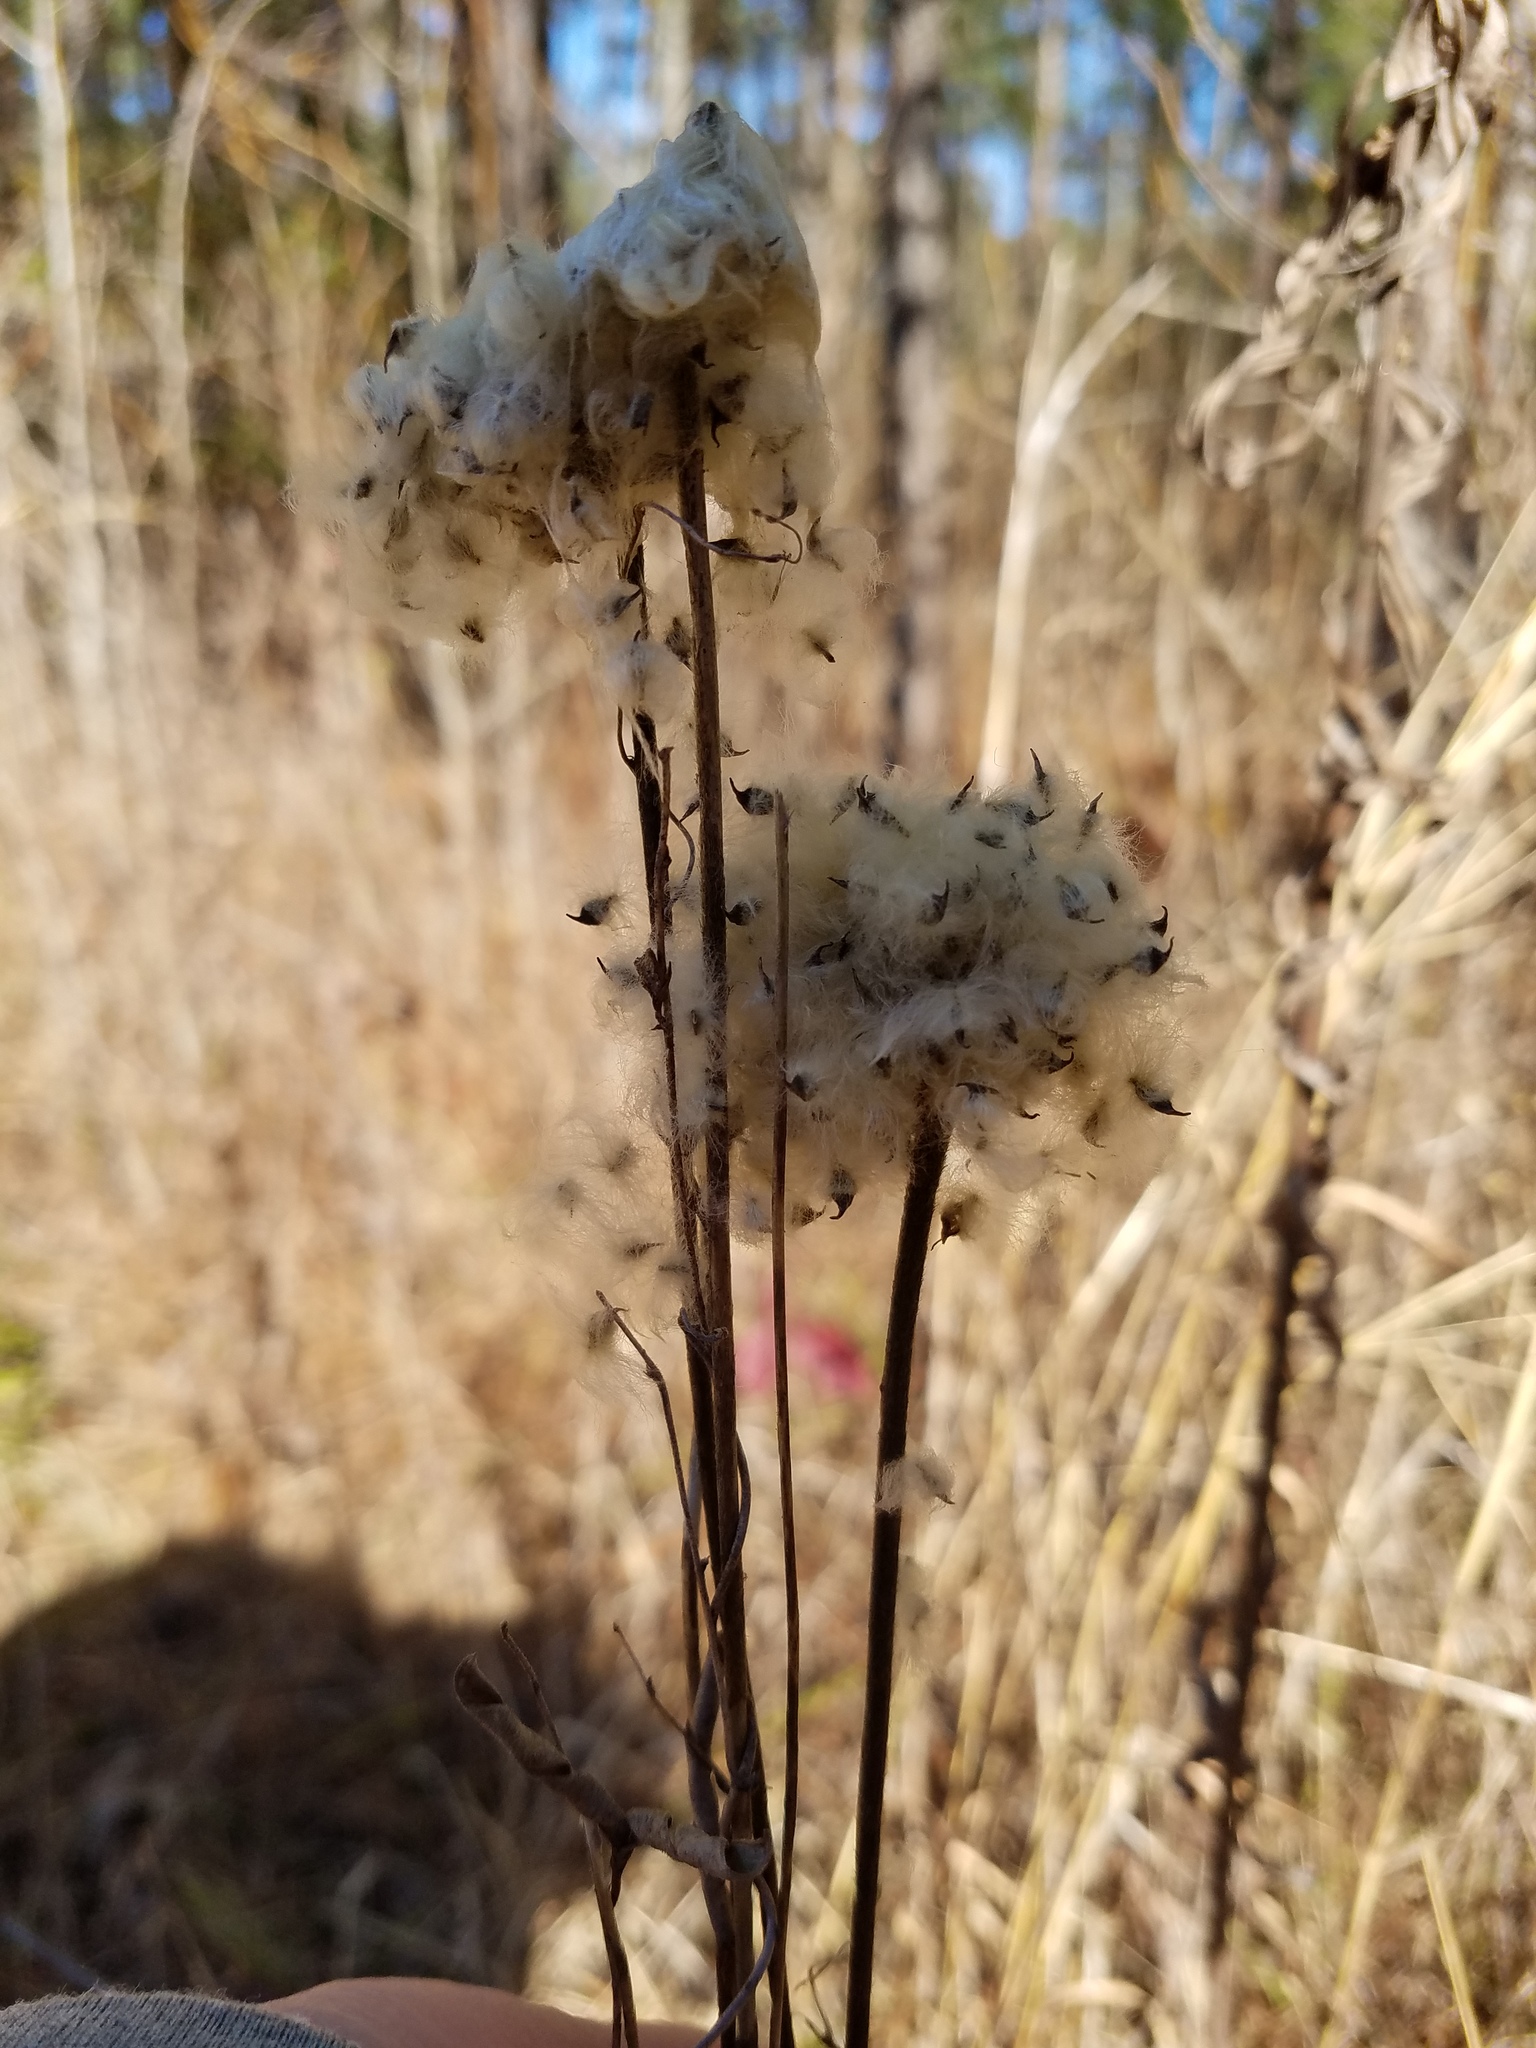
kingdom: Plantae
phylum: Tracheophyta
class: Magnoliopsida
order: Ranunculales
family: Ranunculaceae
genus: Anemone
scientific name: Anemone virginiana
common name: Tall anemone
